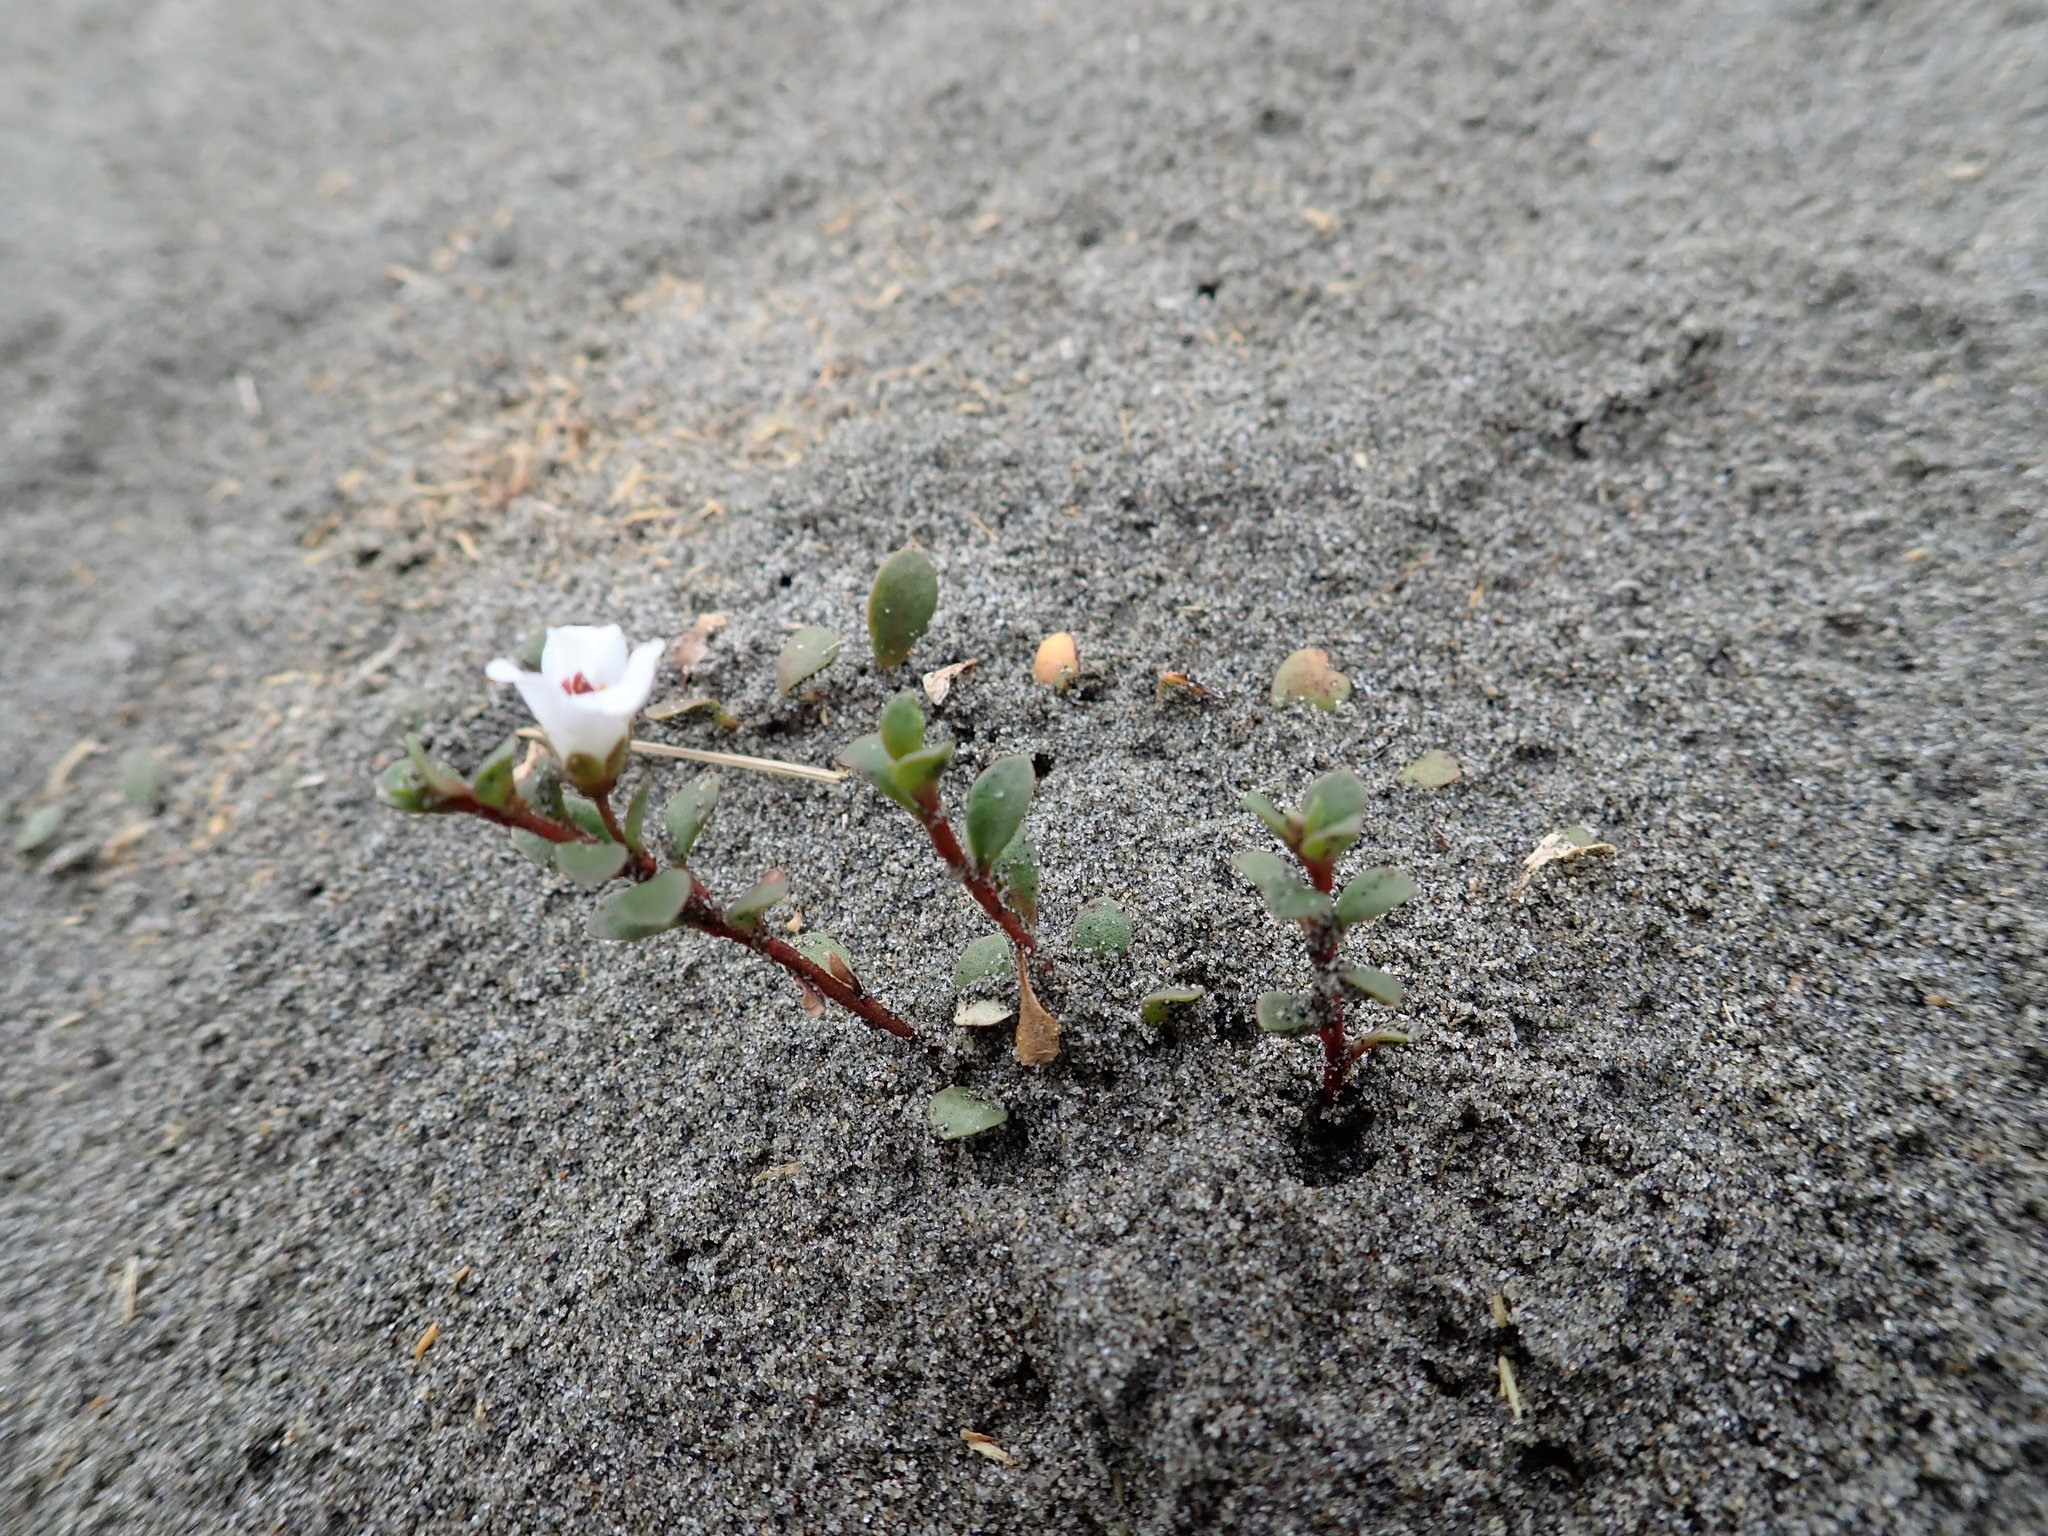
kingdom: Plantae
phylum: Tracheophyta
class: Magnoliopsida
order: Ericales
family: Primulaceae
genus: Samolus
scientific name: Samolus repens
